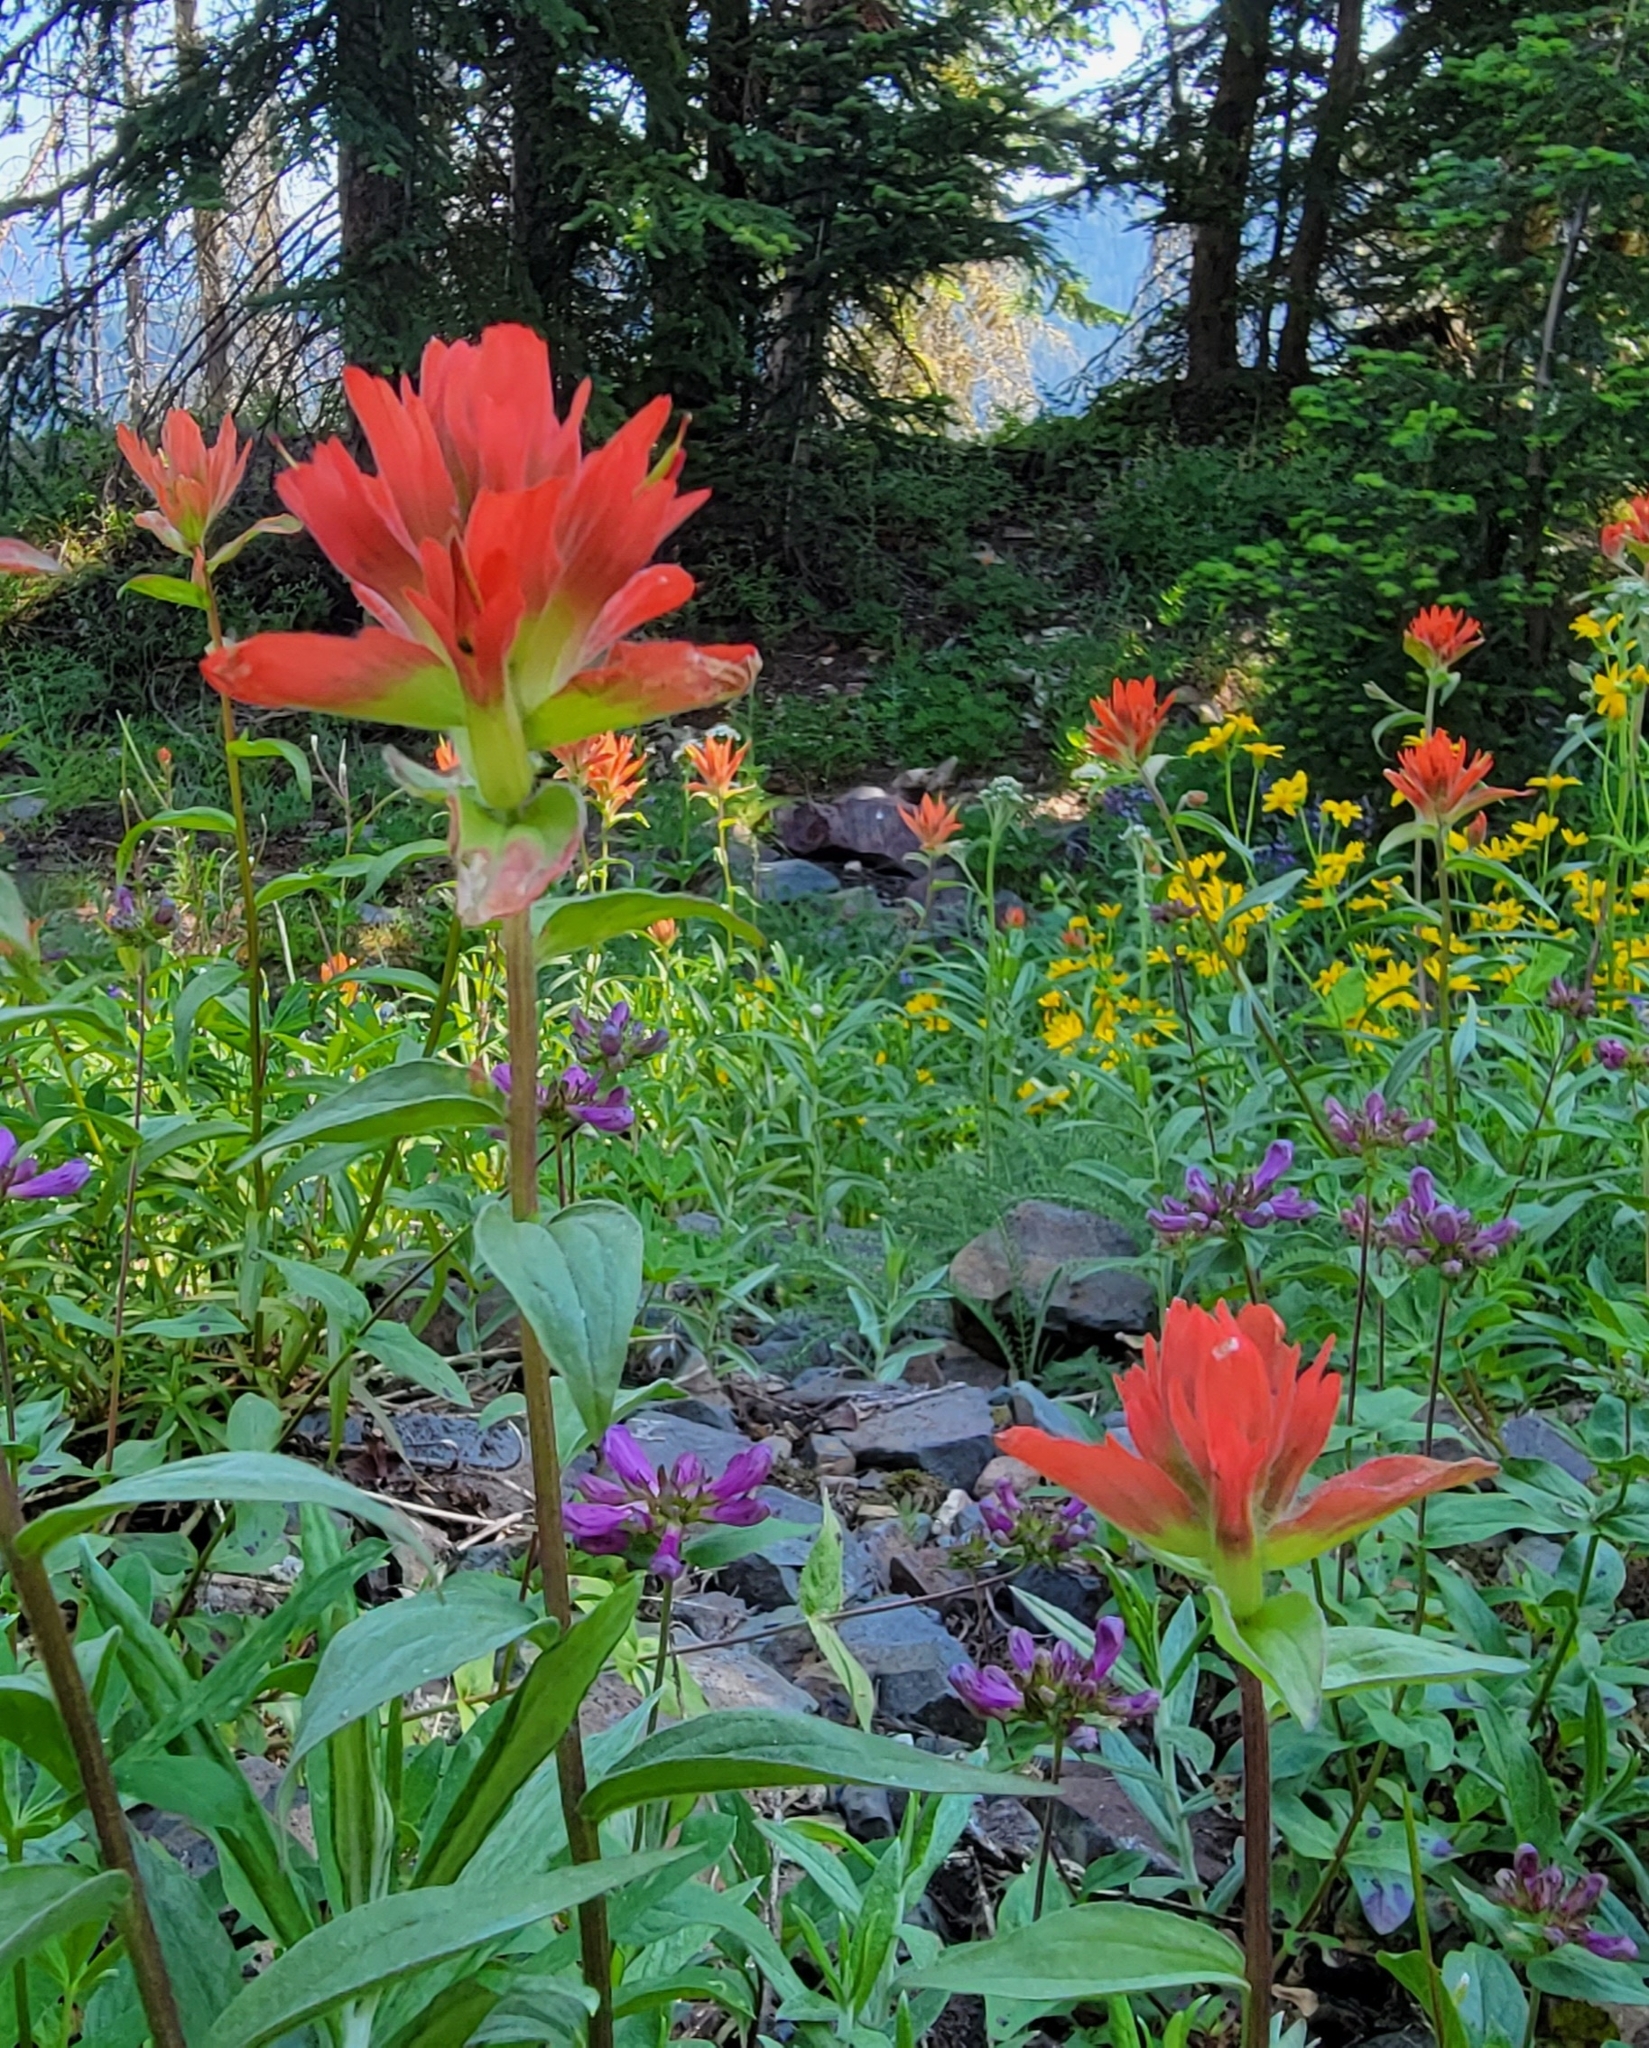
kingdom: Plantae
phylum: Tracheophyta
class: Magnoliopsida
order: Lamiales
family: Orobanchaceae
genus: Castilleja
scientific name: Castilleja miniata
